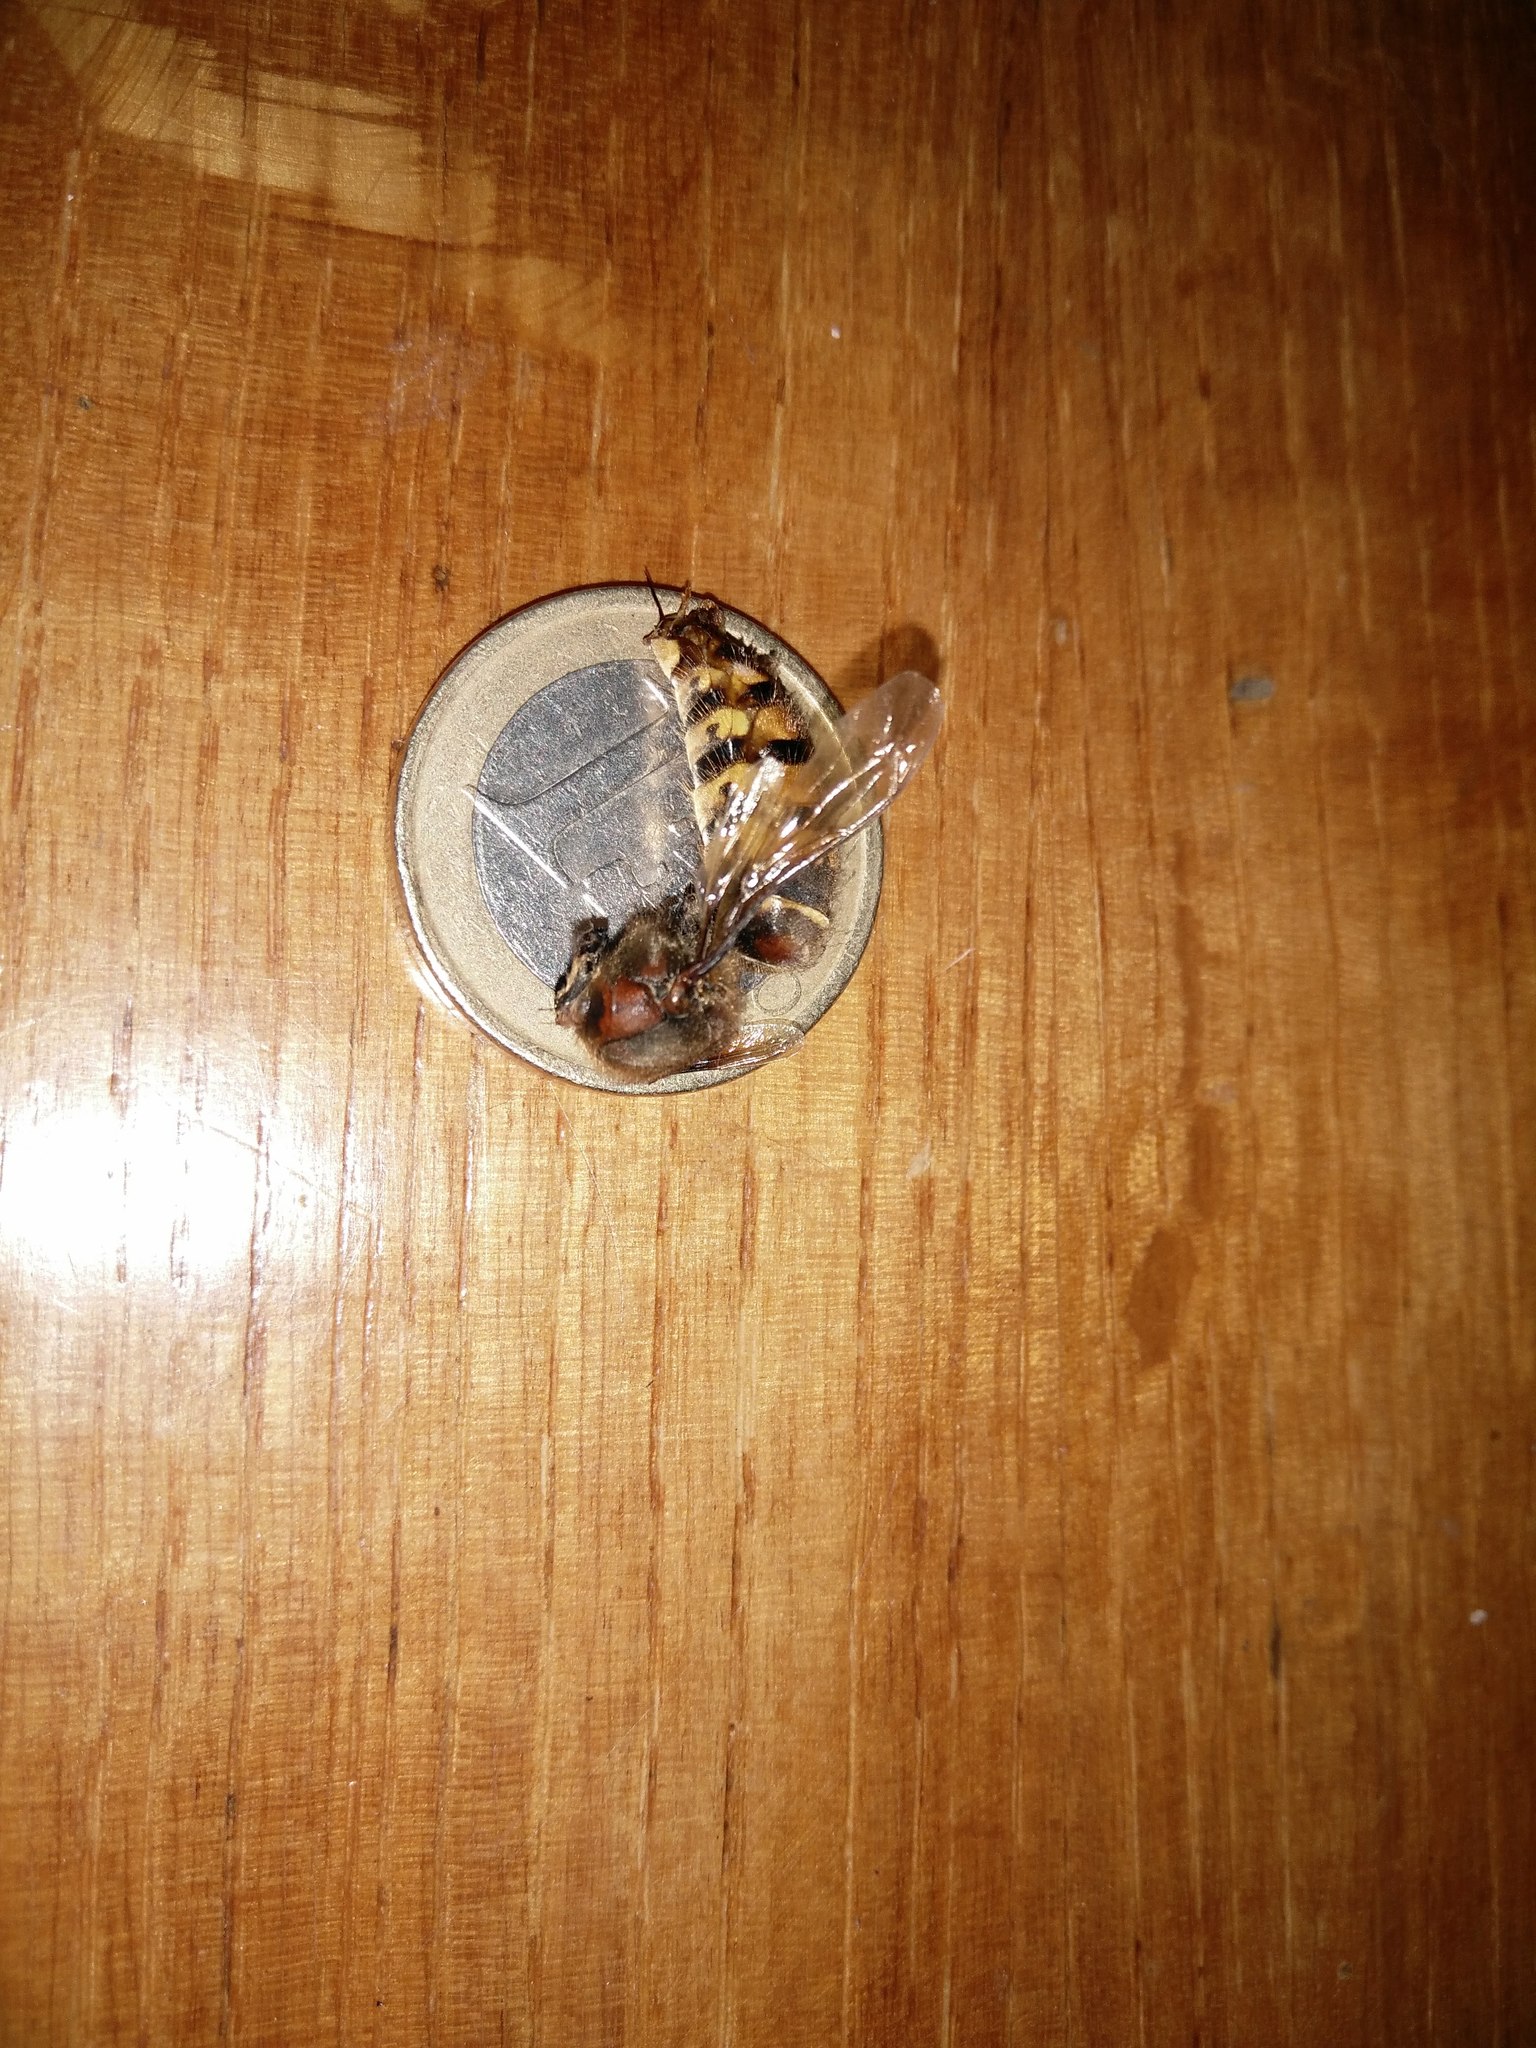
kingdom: Animalia
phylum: Arthropoda
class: Insecta
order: Hymenoptera
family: Vespidae
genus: Vespa
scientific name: Vespa crabro
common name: Hornet
